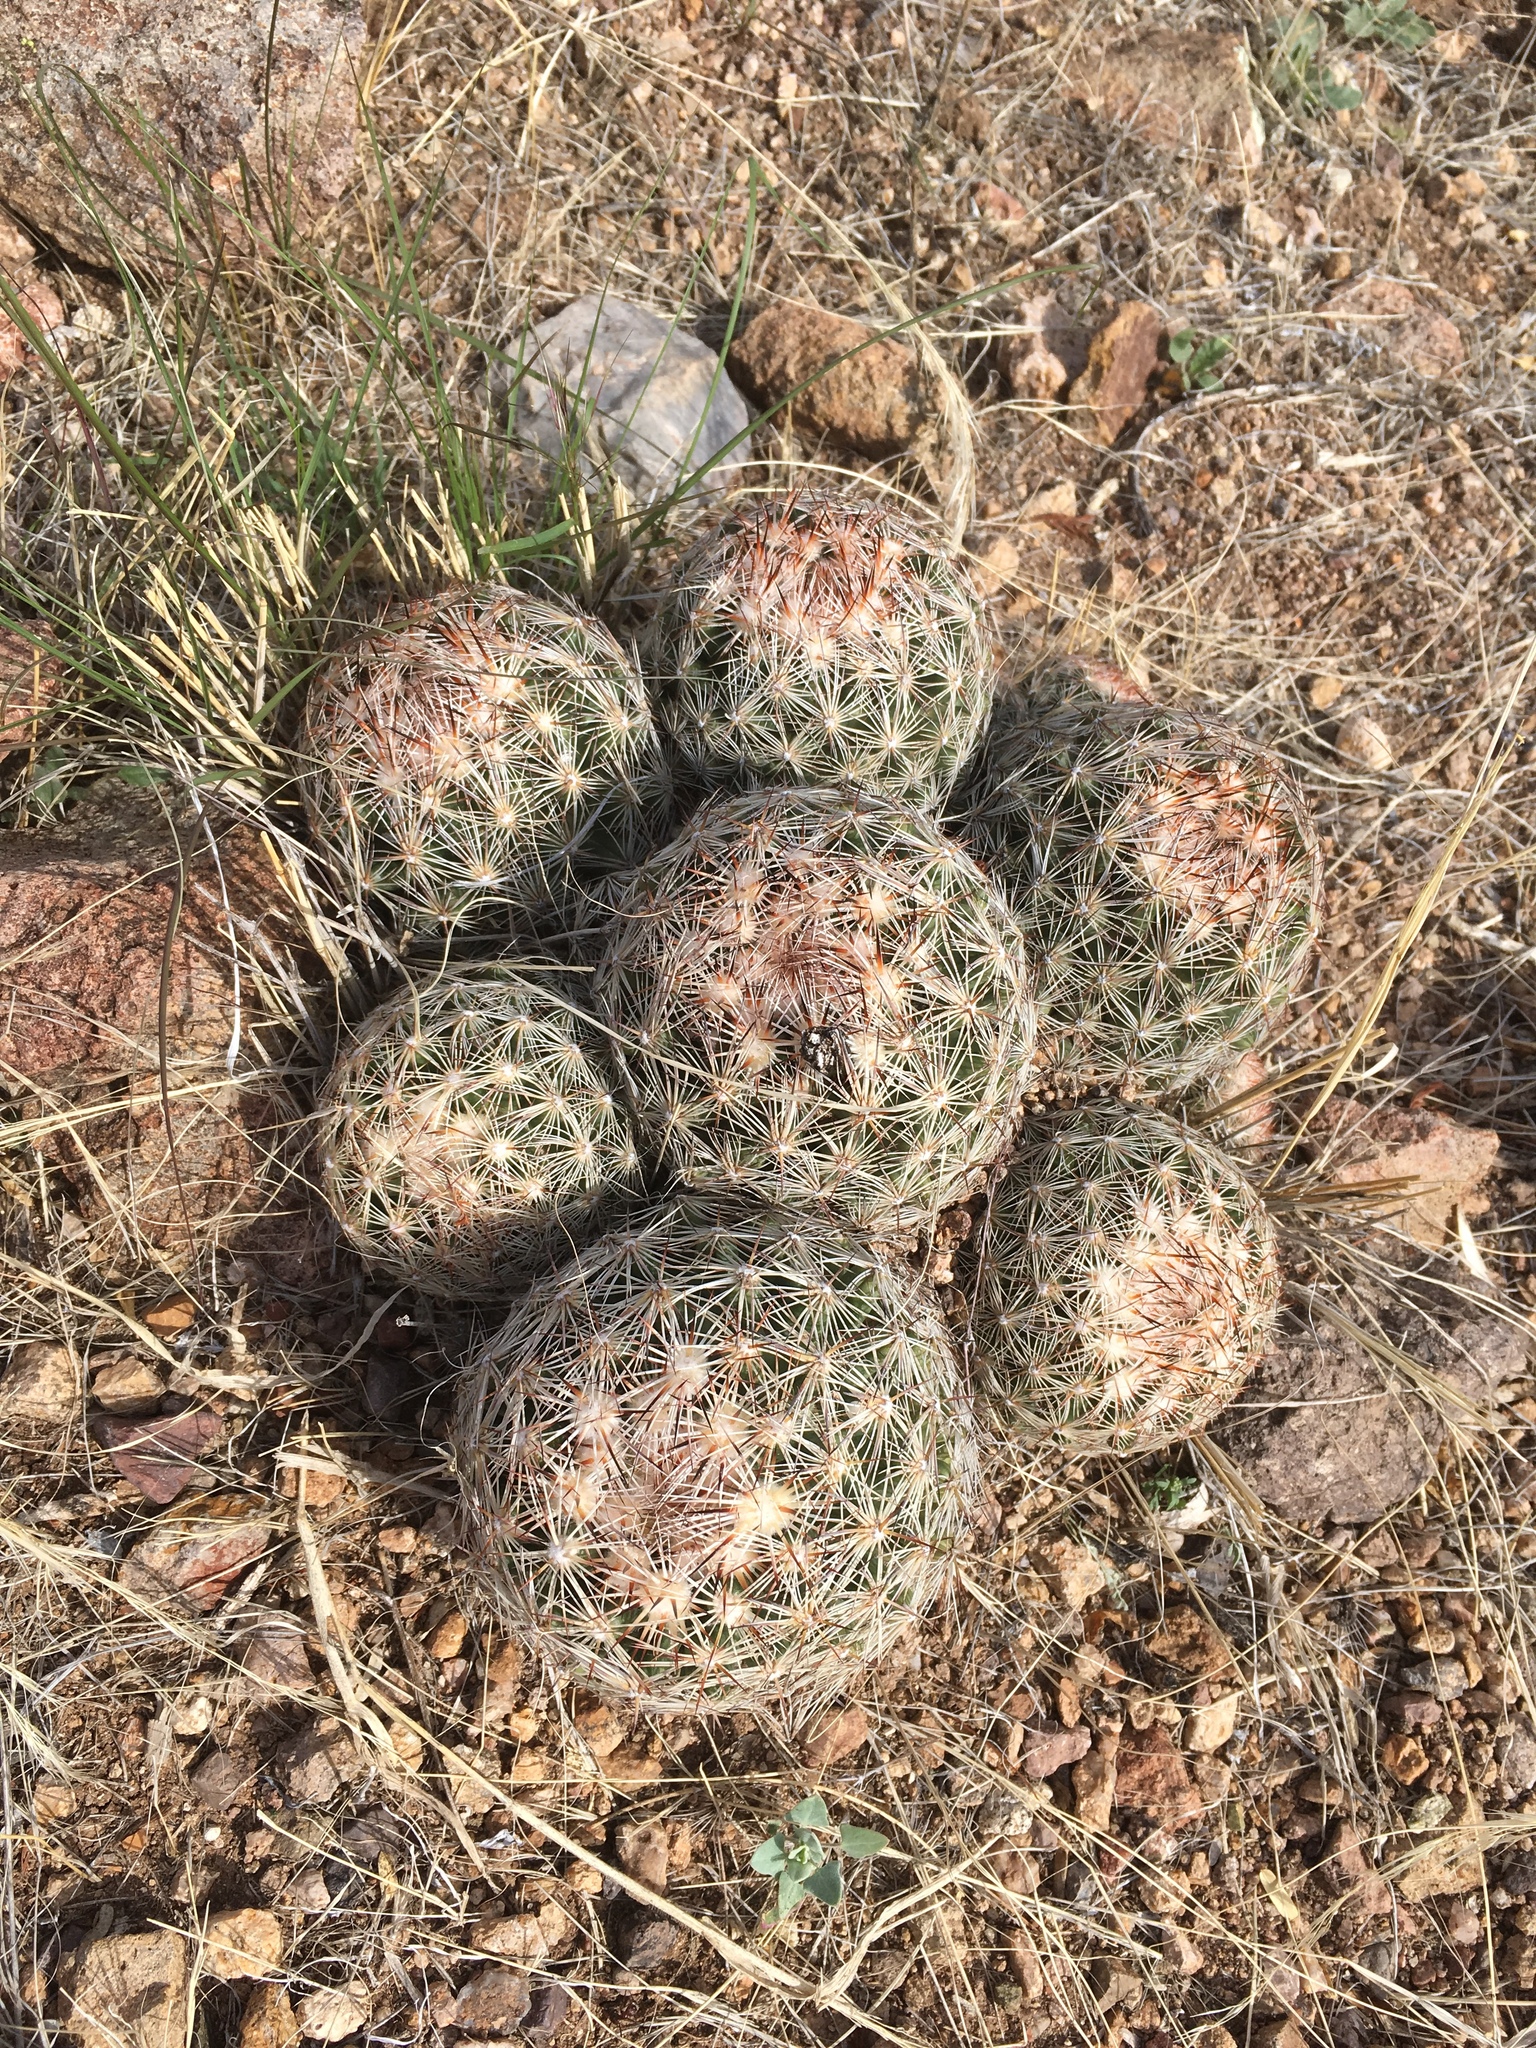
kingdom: Plantae
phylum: Tracheophyta
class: Magnoliopsida
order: Caryophyllales
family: Cactaceae
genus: Pelecyphora
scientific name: Pelecyphora vivipara
